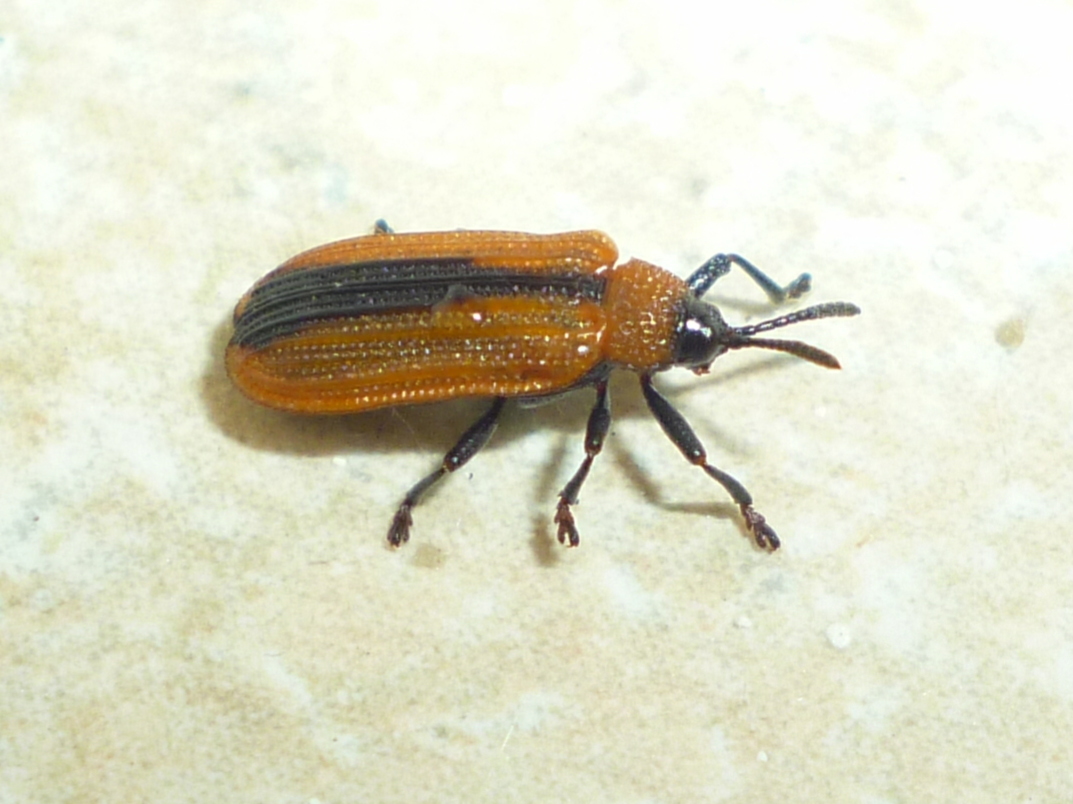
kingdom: Animalia
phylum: Arthropoda
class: Insecta
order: Coleoptera
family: Chrysomelidae
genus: Odontota
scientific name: Odontota dorsalis
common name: Locust leaf-miner beetle
